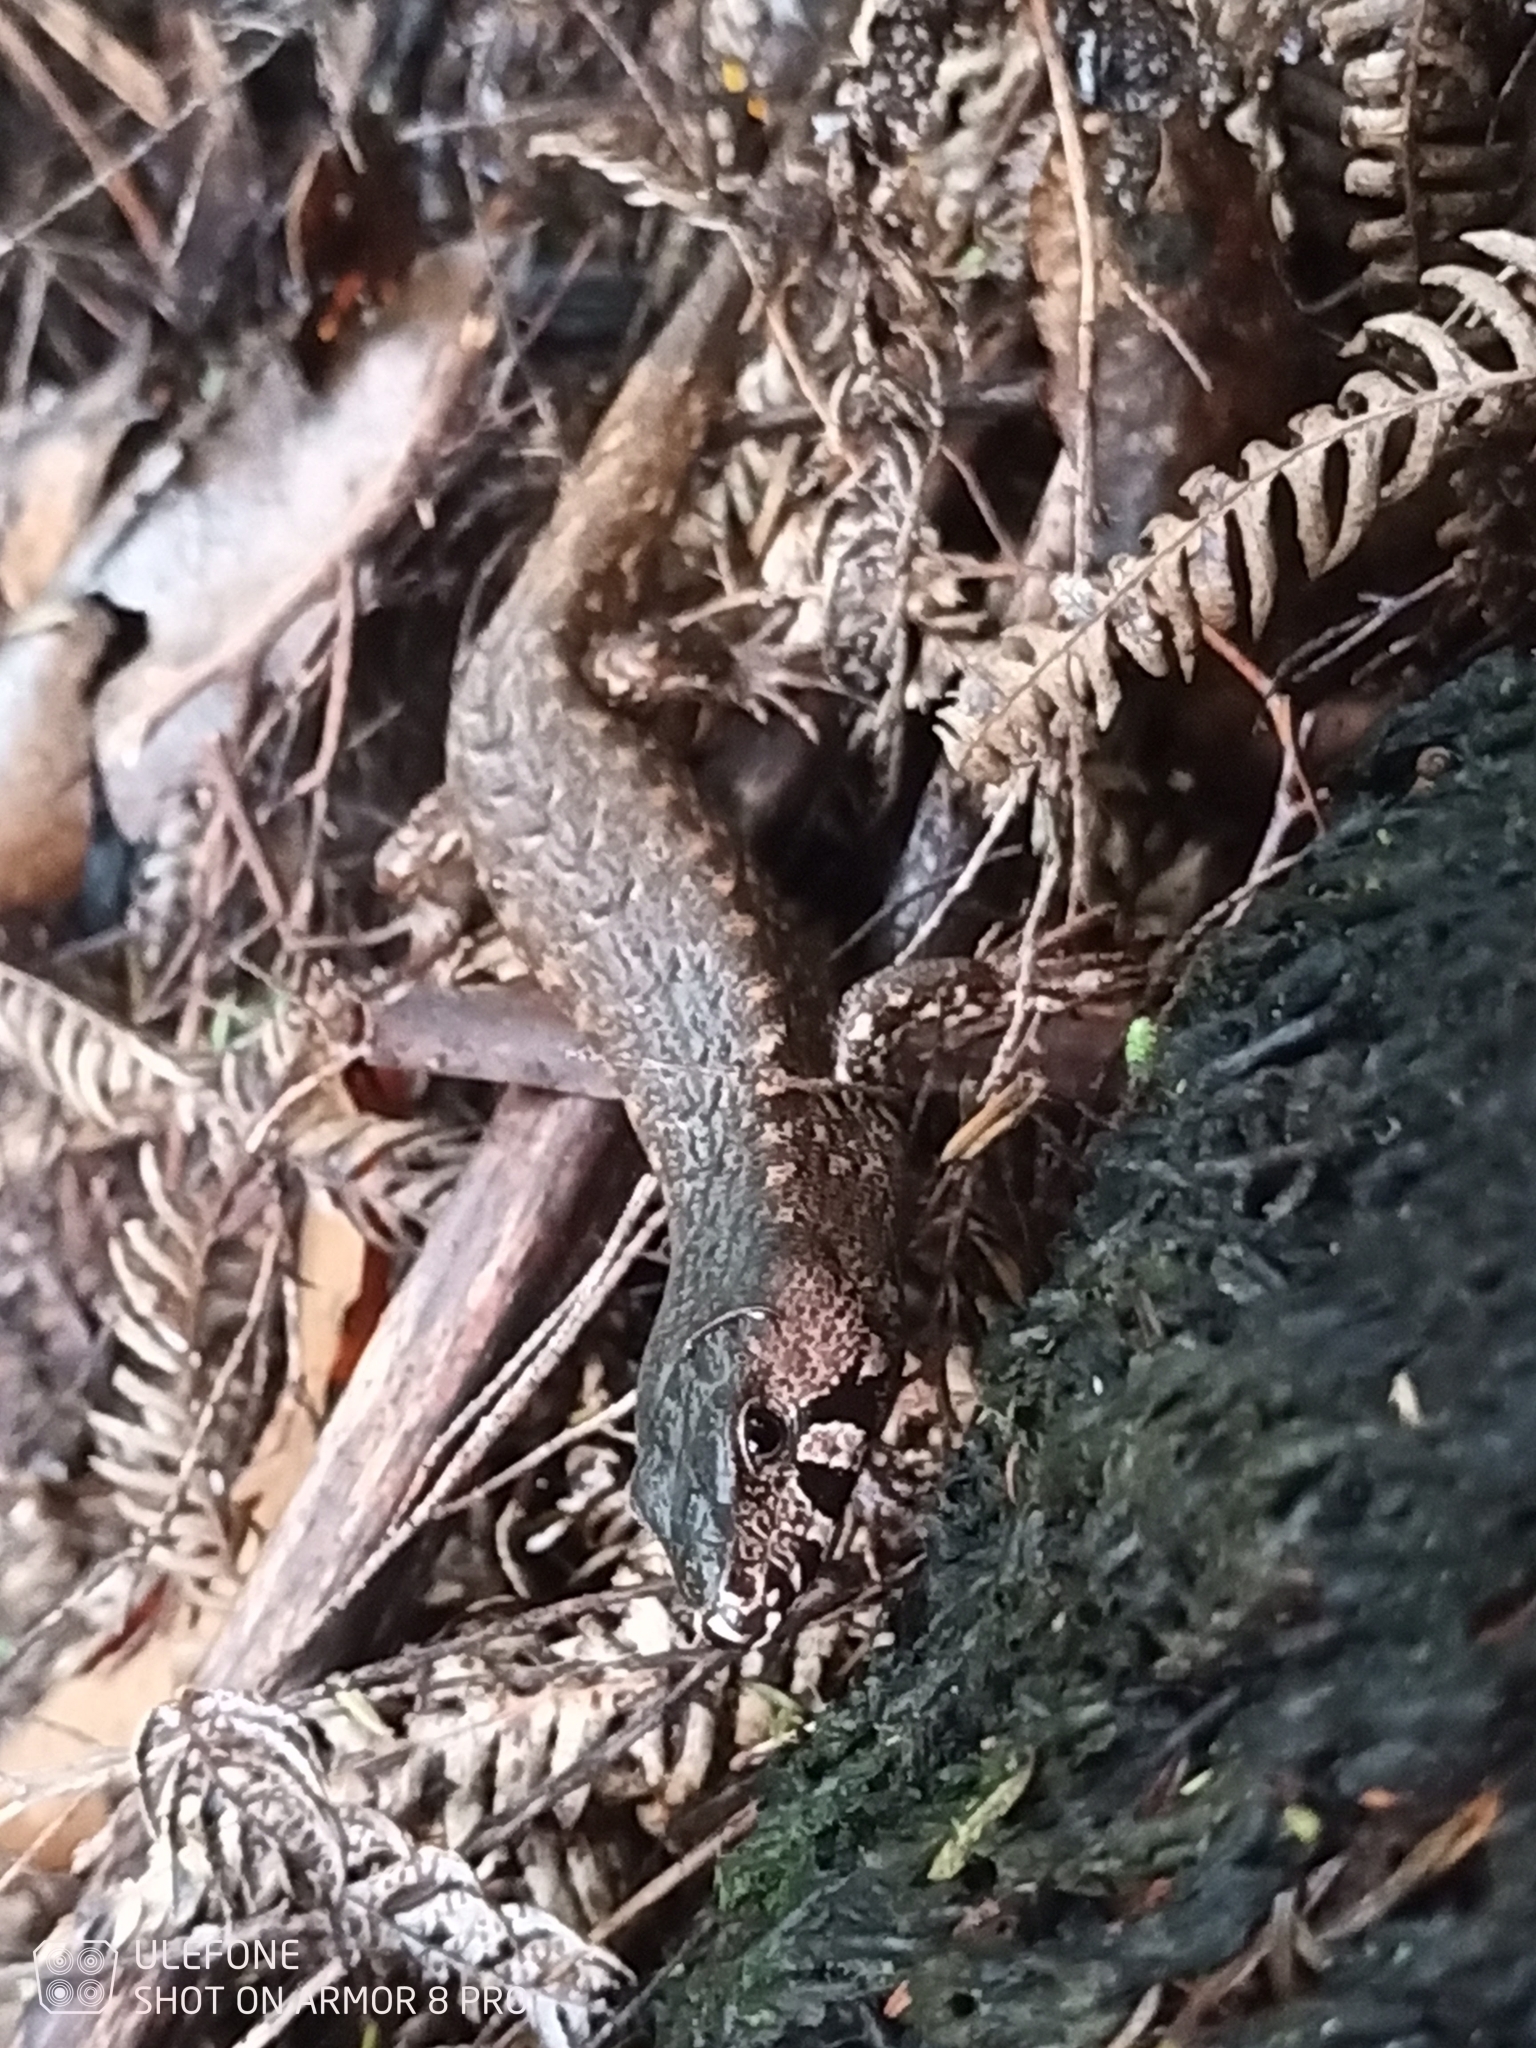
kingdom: Animalia
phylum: Chordata
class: Squamata
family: Scincidae
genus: Oligosoma
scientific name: Oligosoma homalonotum
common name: Chevron skink
